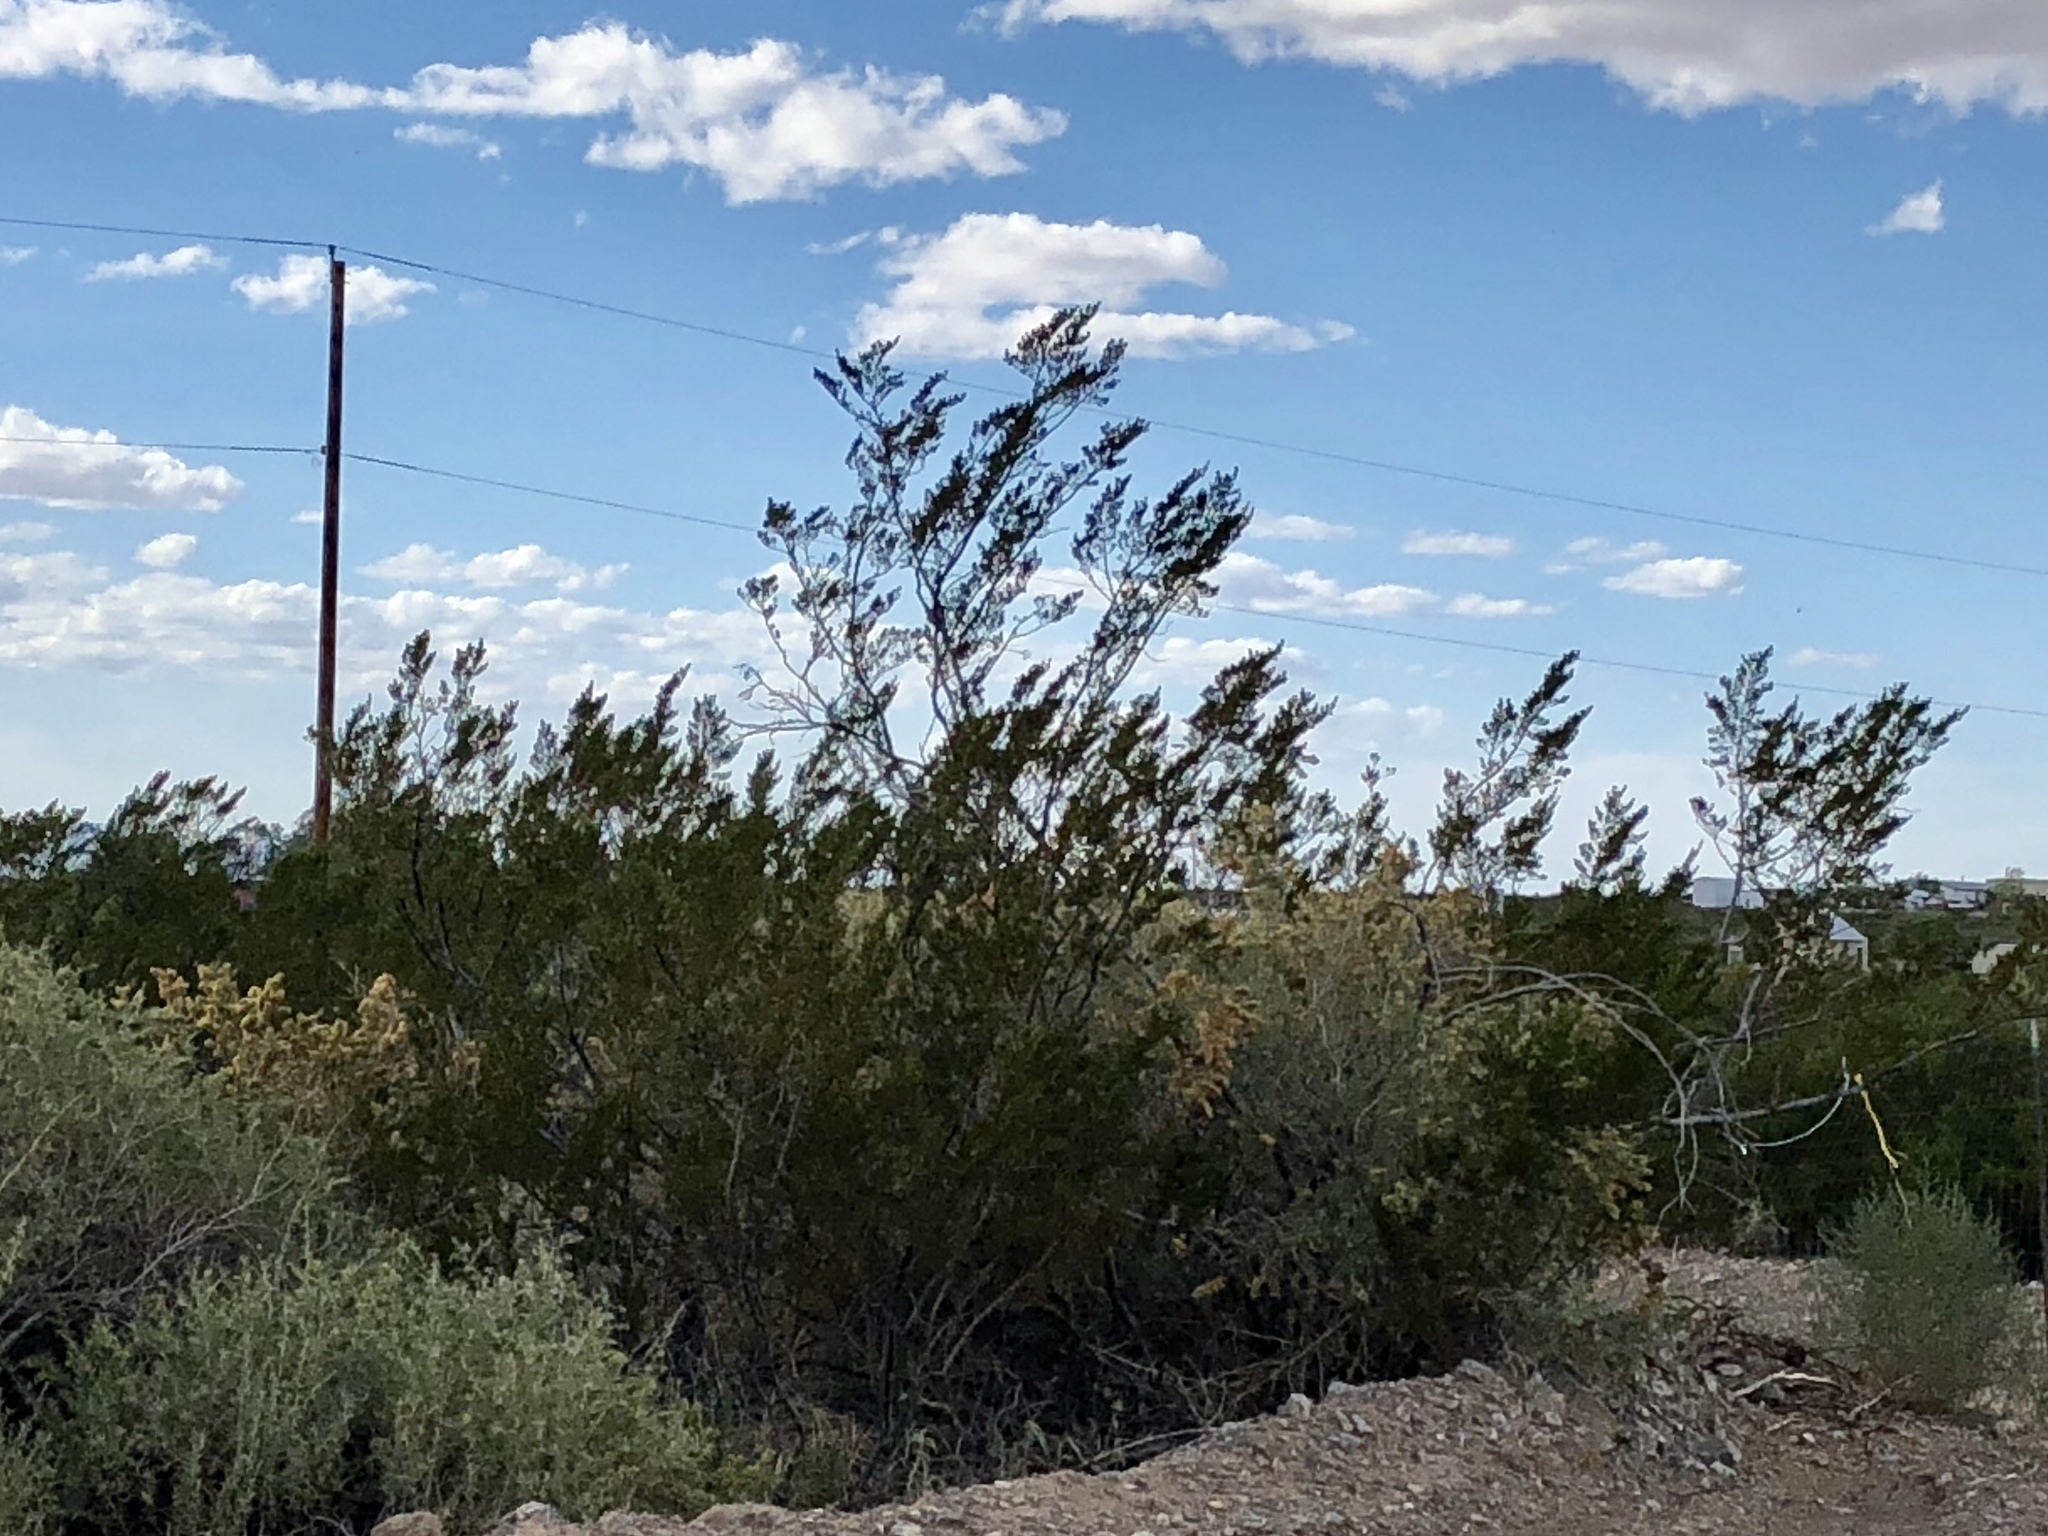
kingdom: Plantae
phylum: Tracheophyta
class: Magnoliopsida
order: Zygophyllales
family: Zygophyllaceae
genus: Larrea
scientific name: Larrea tridentata
